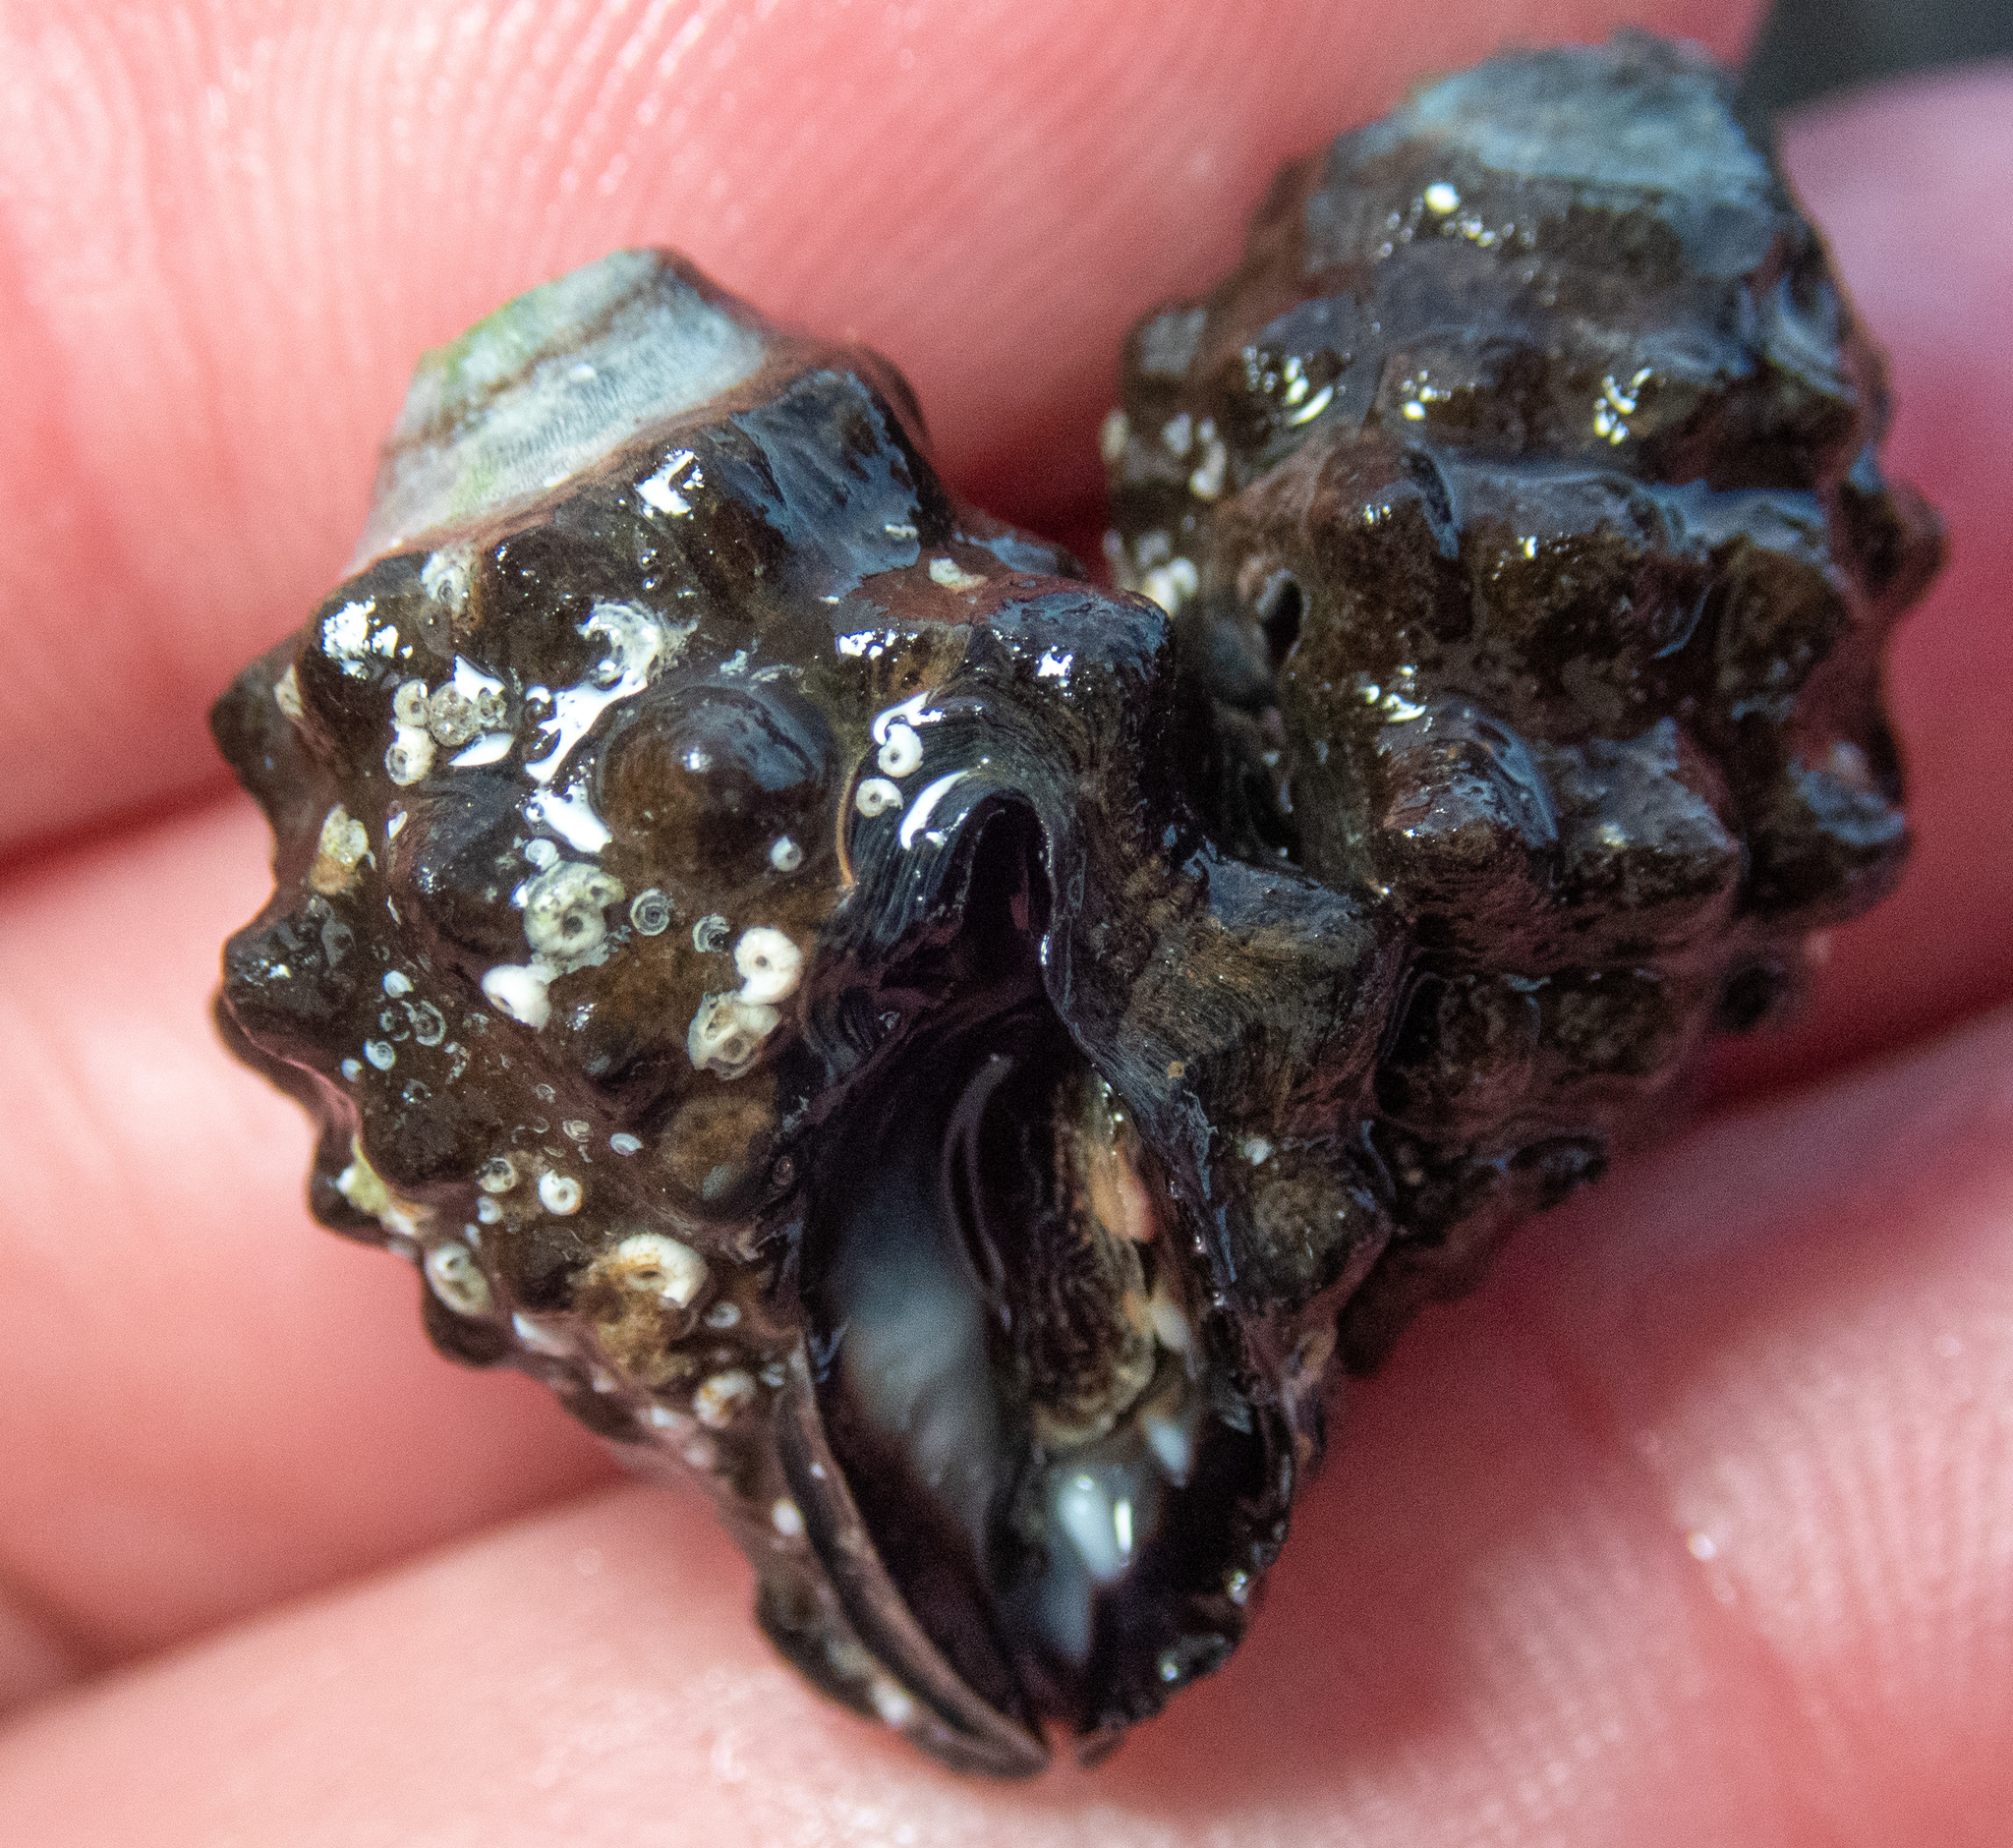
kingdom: Animalia
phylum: Mollusca
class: Gastropoda
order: Neogastropoda
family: Muricidae
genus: Tenguella
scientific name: Tenguella granulata
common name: Granular drupe
